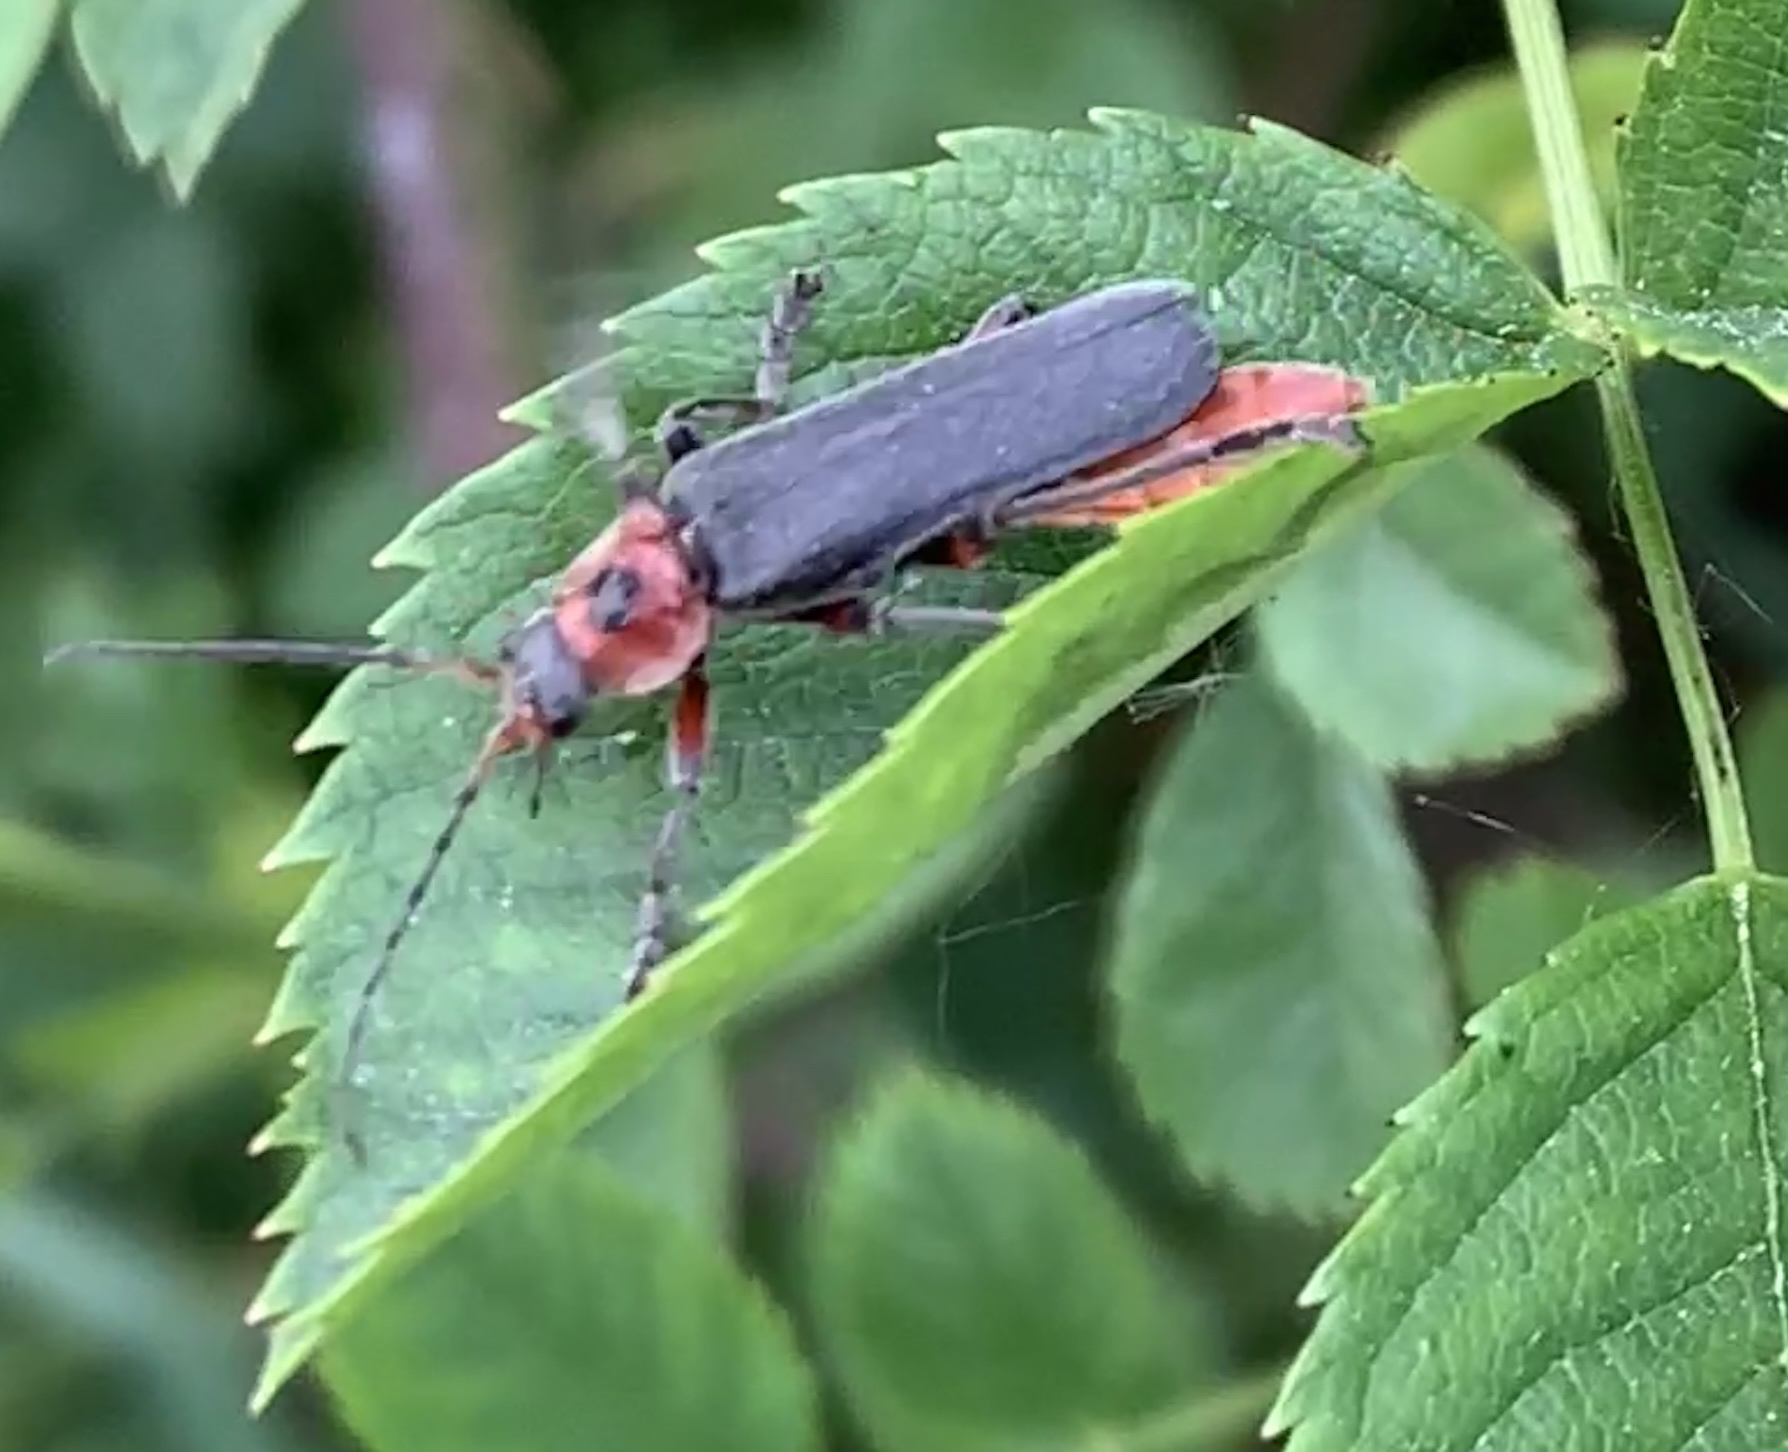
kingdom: Animalia
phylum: Arthropoda
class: Insecta
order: Coleoptera
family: Cantharidae
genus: Cantharis
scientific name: Cantharis rustica
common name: Soldier beetle
